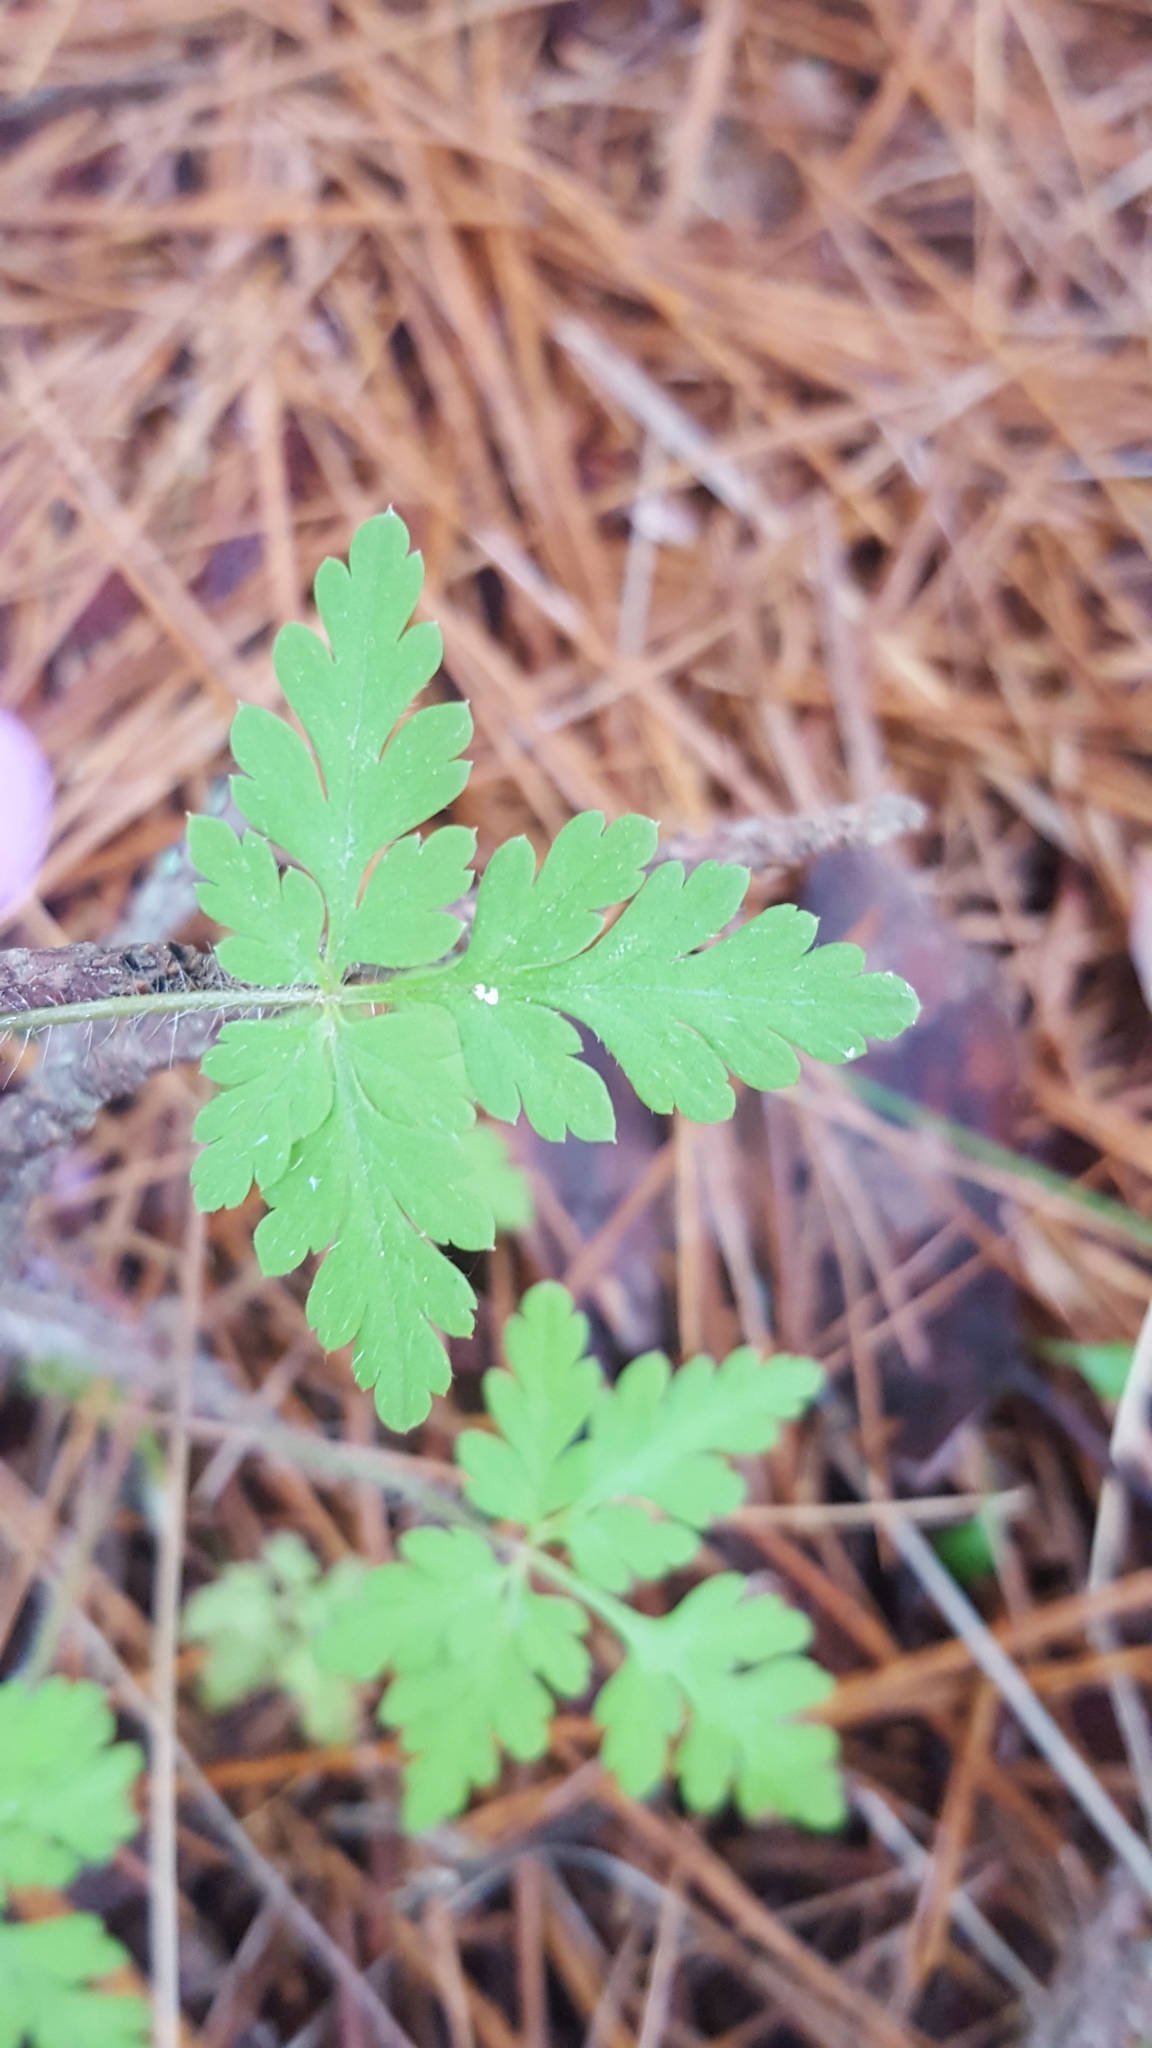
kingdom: Plantae
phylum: Tracheophyta
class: Magnoliopsida
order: Geraniales
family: Geraniaceae
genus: Geranium
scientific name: Geranium robertianum
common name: Herb-robert
